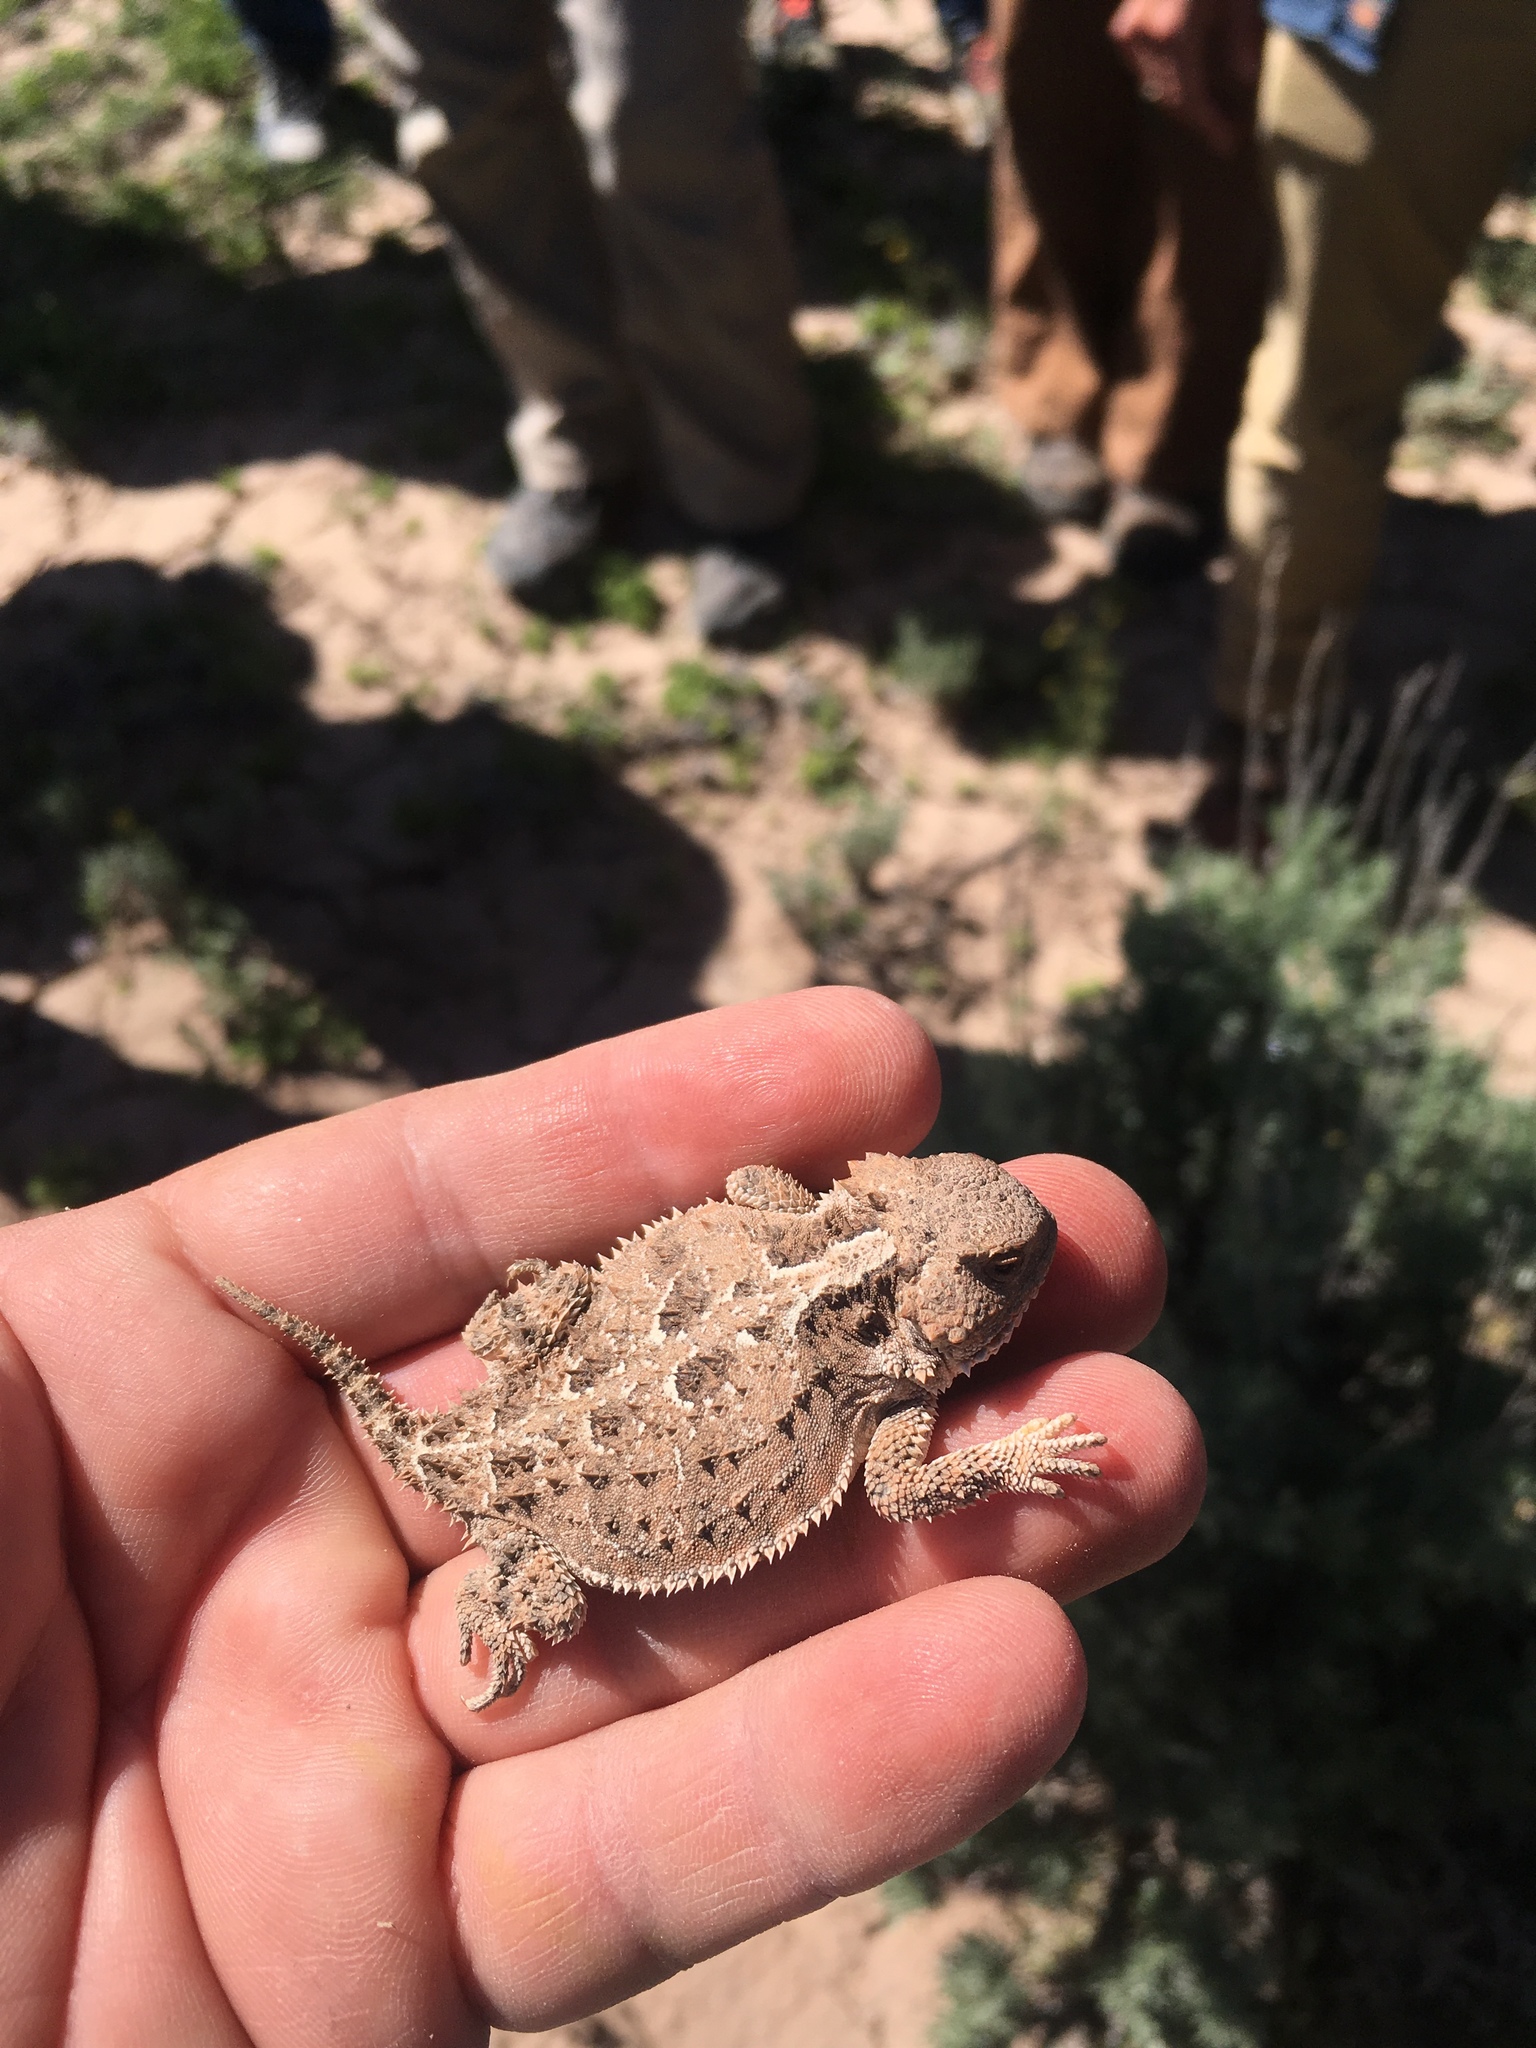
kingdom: Animalia
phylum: Chordata
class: Squamata
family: Phrynosomatidae
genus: Phrynosoma
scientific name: Phrynosoma hernandesi
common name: Greater short-horned lizard
